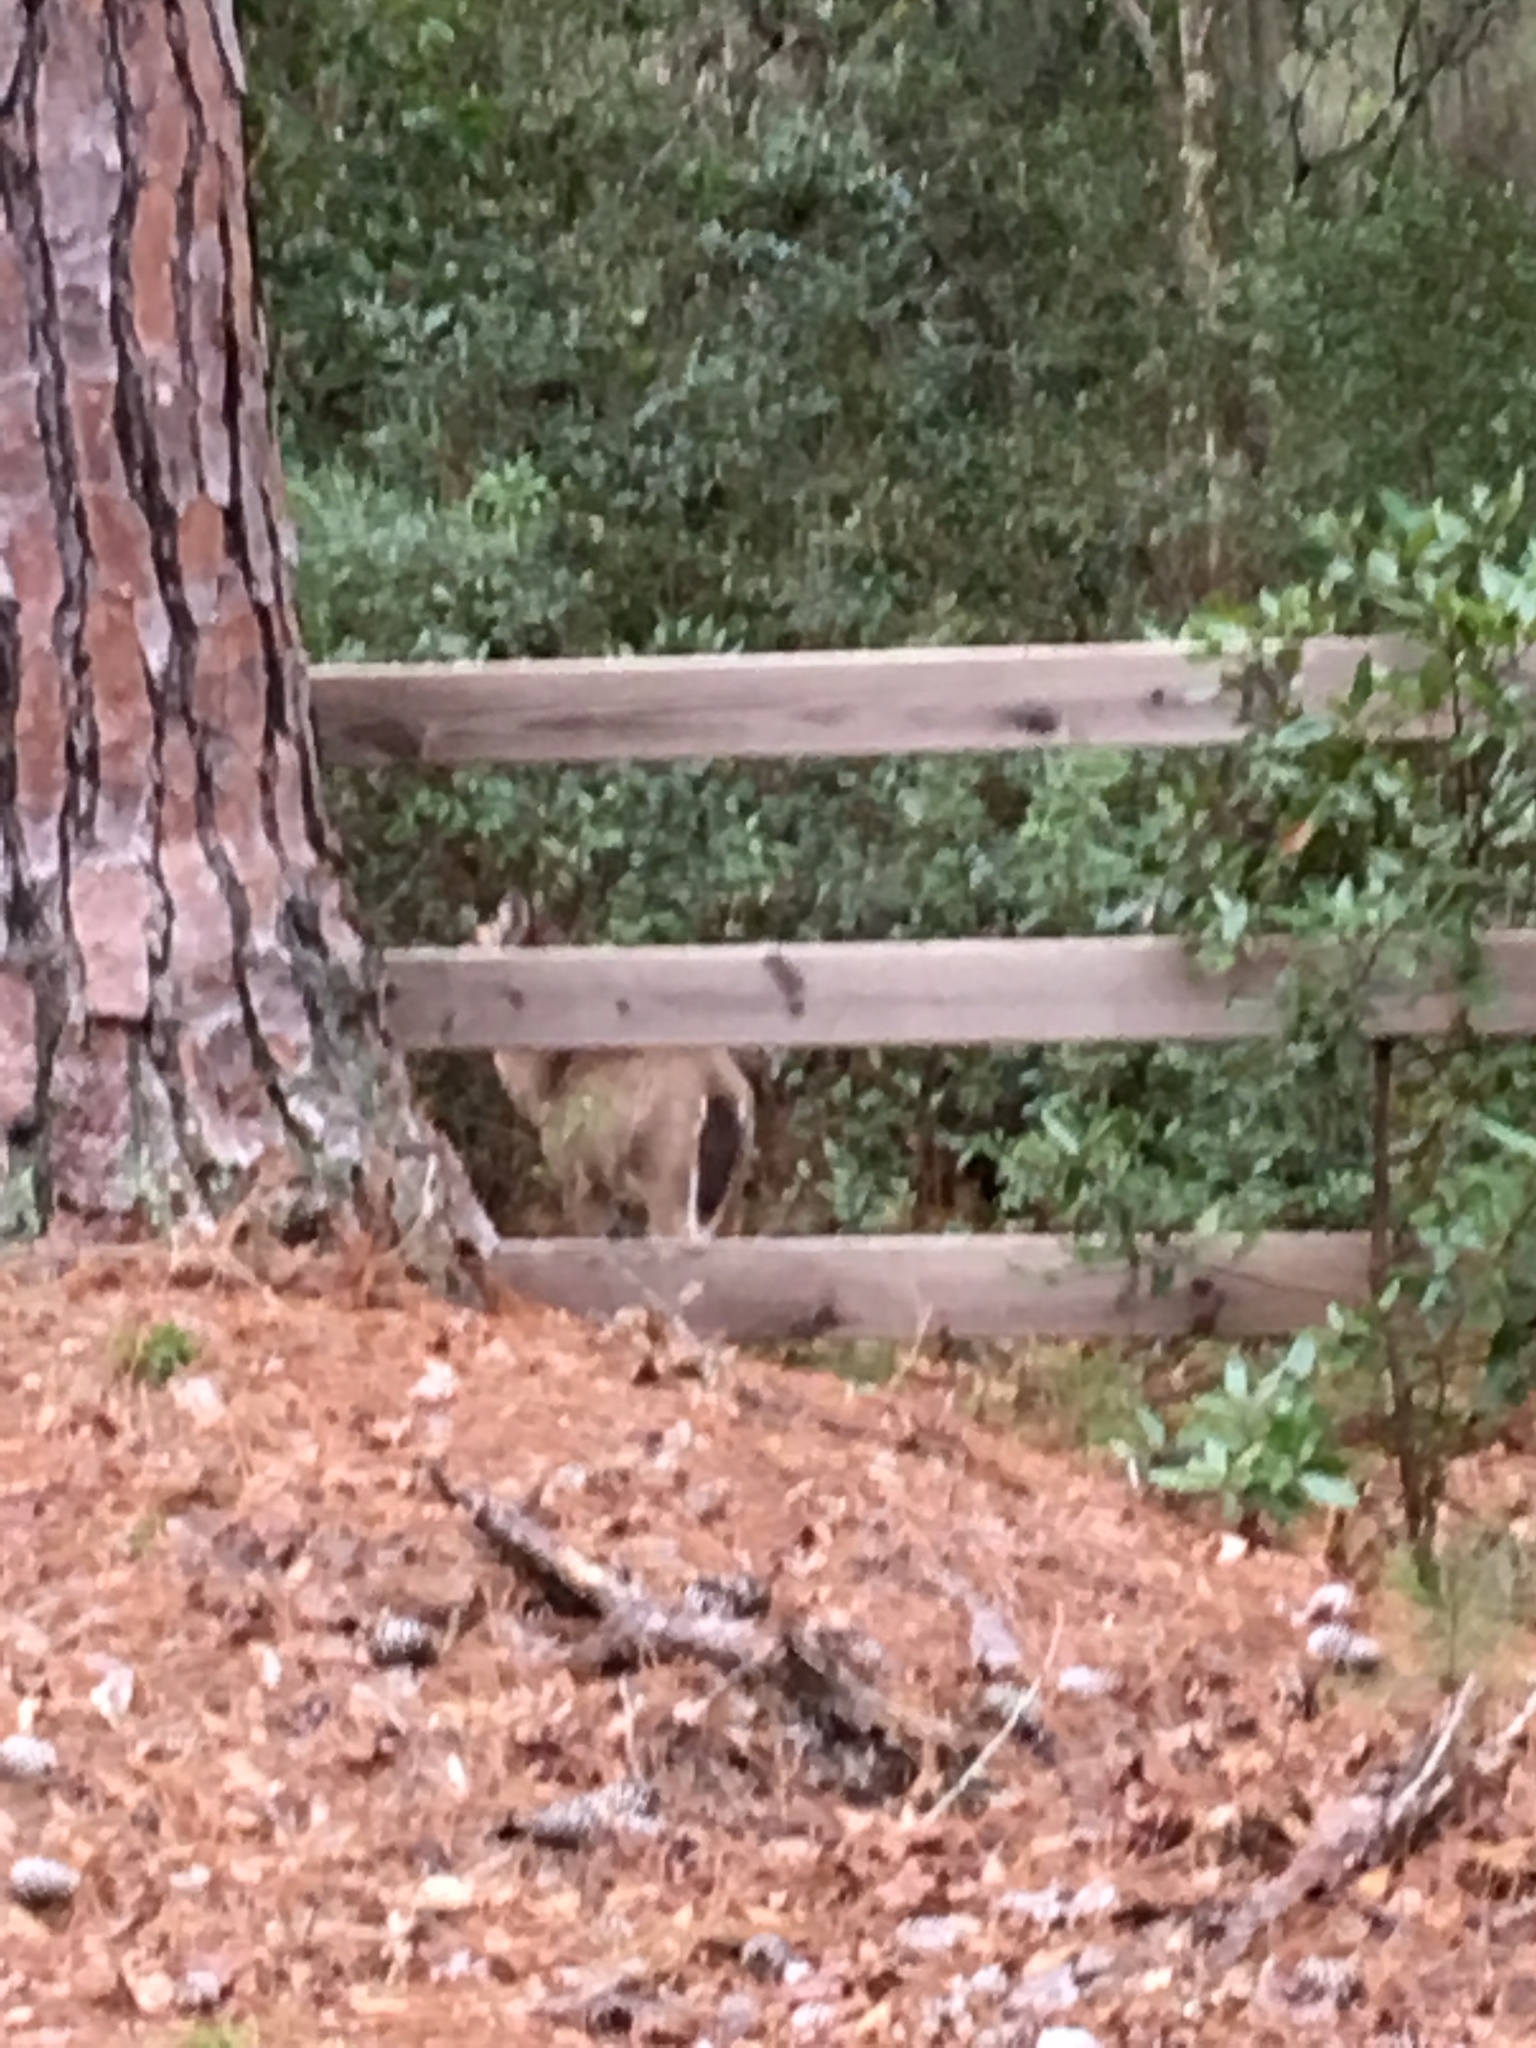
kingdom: Animalia
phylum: Chordata
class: Mammalia
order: Artiodactyla
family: Cervidae
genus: Odocoileus
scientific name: Odocoileus virginianus
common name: White-tailed deer
